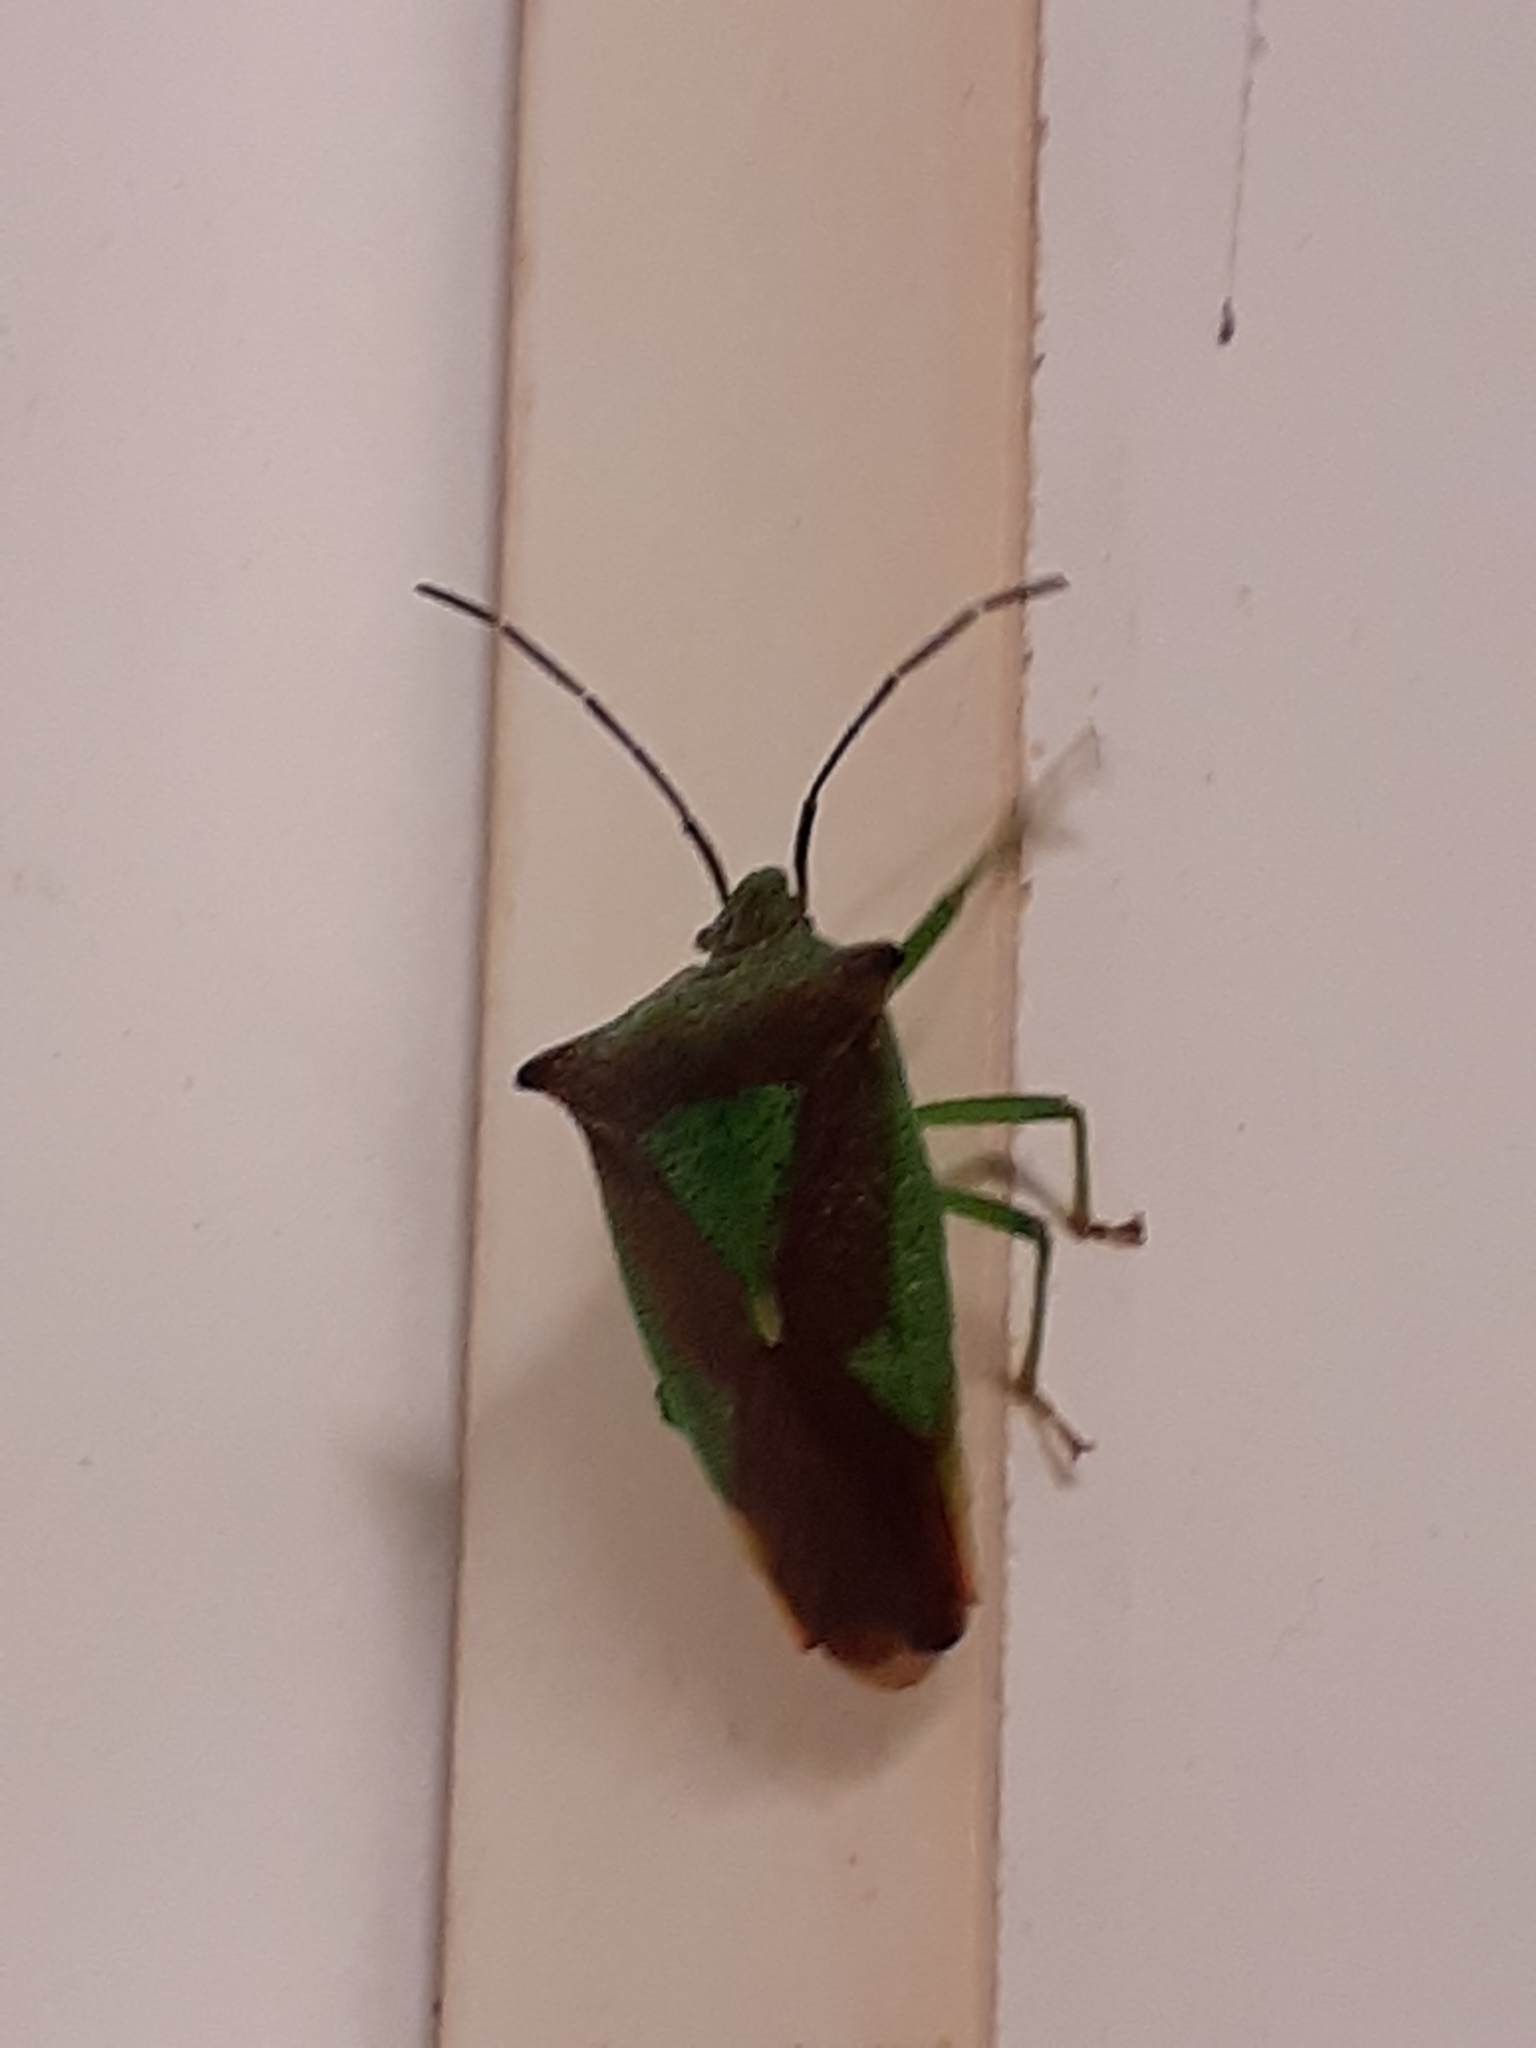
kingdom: Animalia
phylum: Arthropoda
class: Insecta
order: Hemiptera
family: Acanthosomatidae
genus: Acanthosoma
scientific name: Acanthosoma haemorrhoidale
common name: Hawthorn shieldbug
